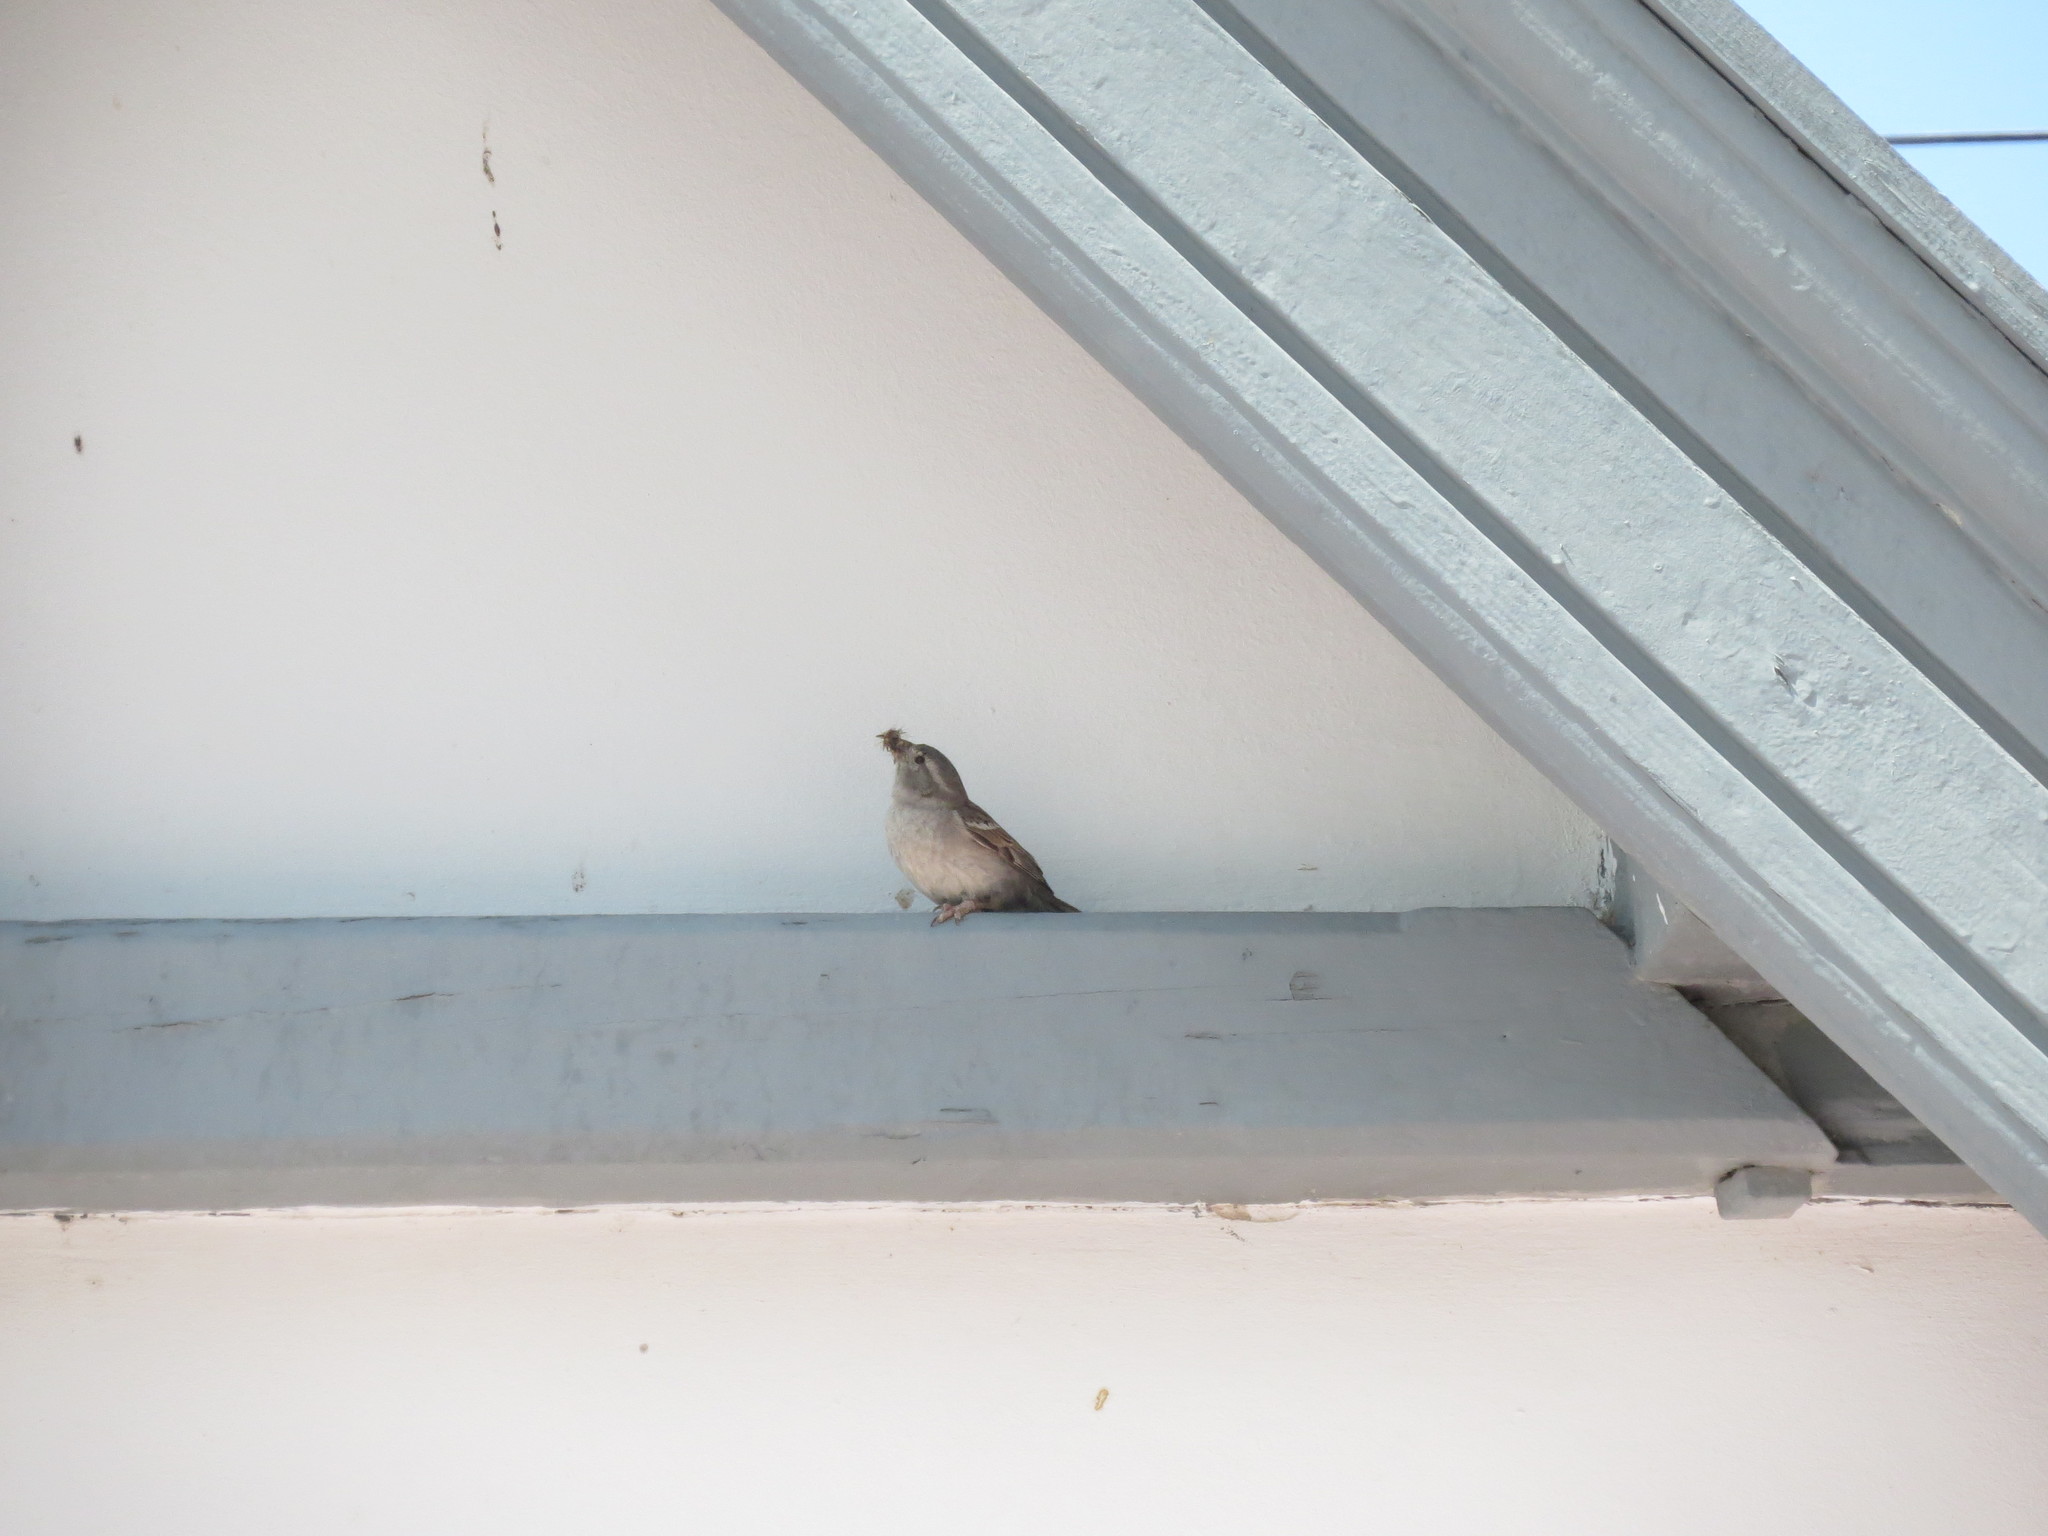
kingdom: Animalia
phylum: Chordata
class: Aves
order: Passeriformes
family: Passeridae
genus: Passer
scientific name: Passer domesticus
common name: House sparrow
